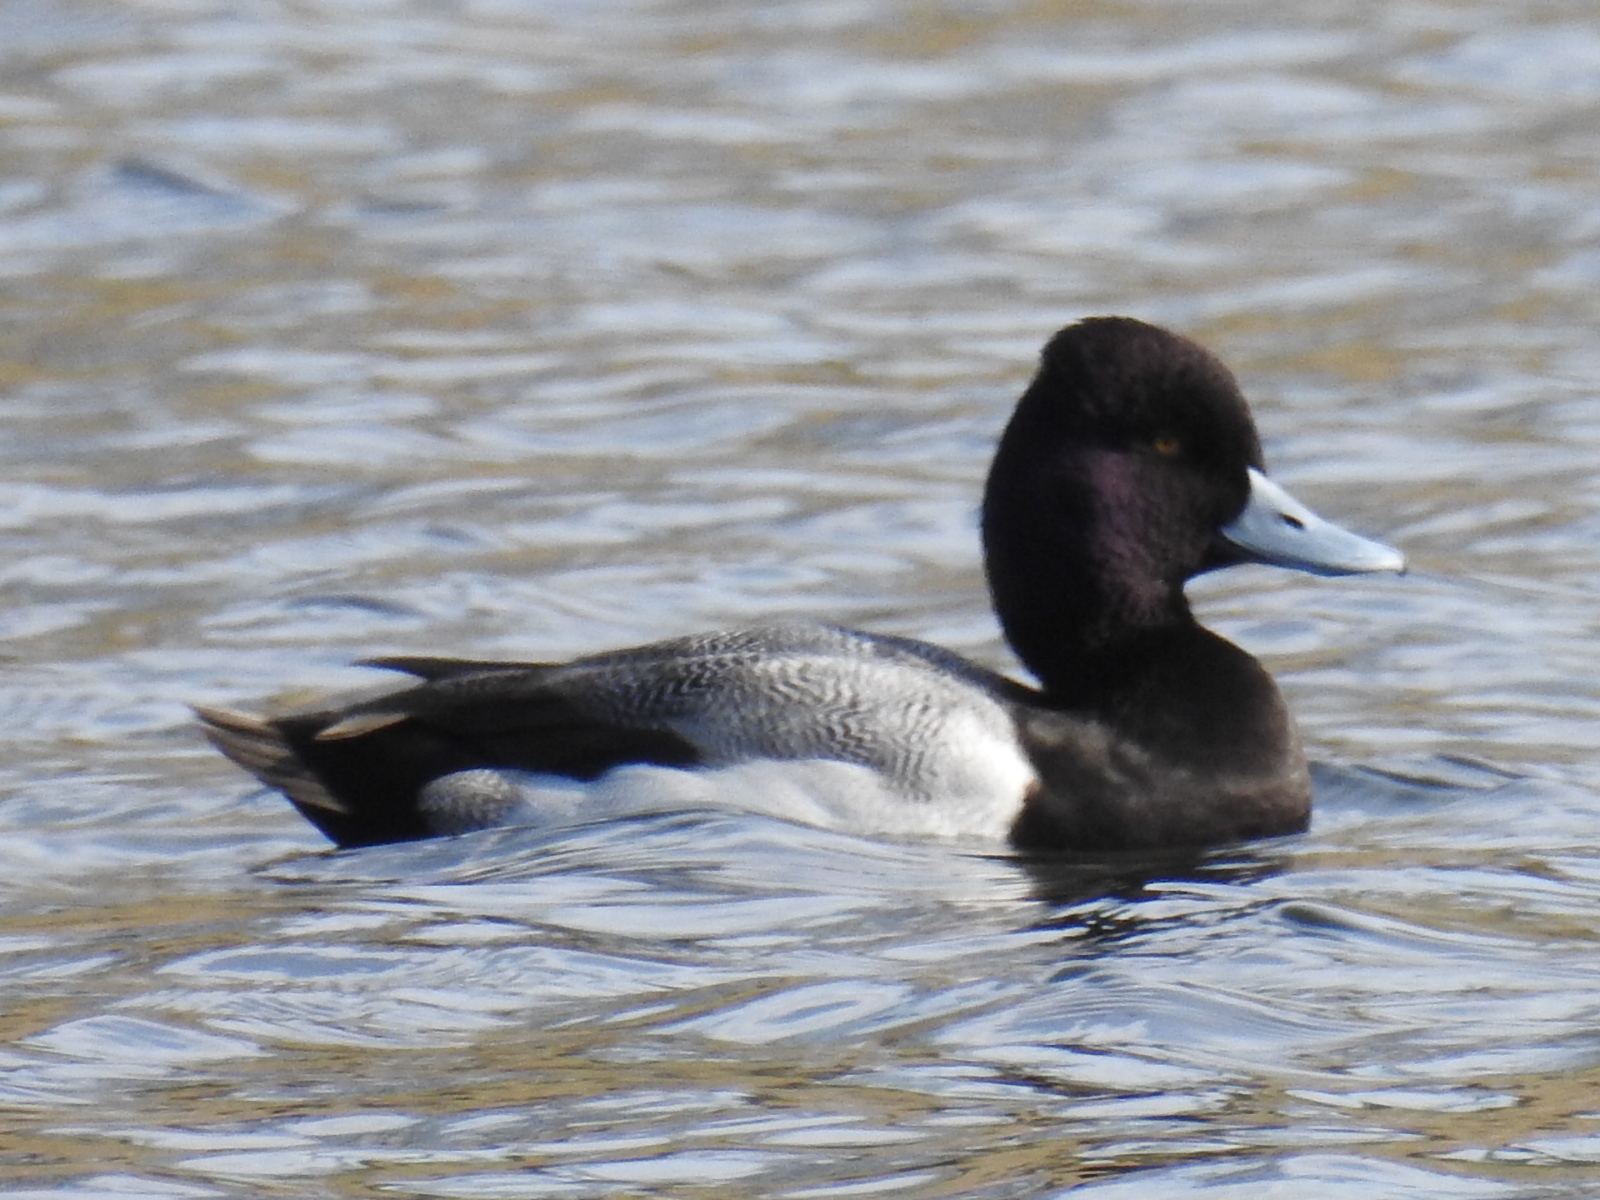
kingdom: Animalia
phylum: Chordata
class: Aves
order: Anseriformes
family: Anatidae
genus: Aythya
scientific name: Aythya affinis
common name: Lesser scaup
